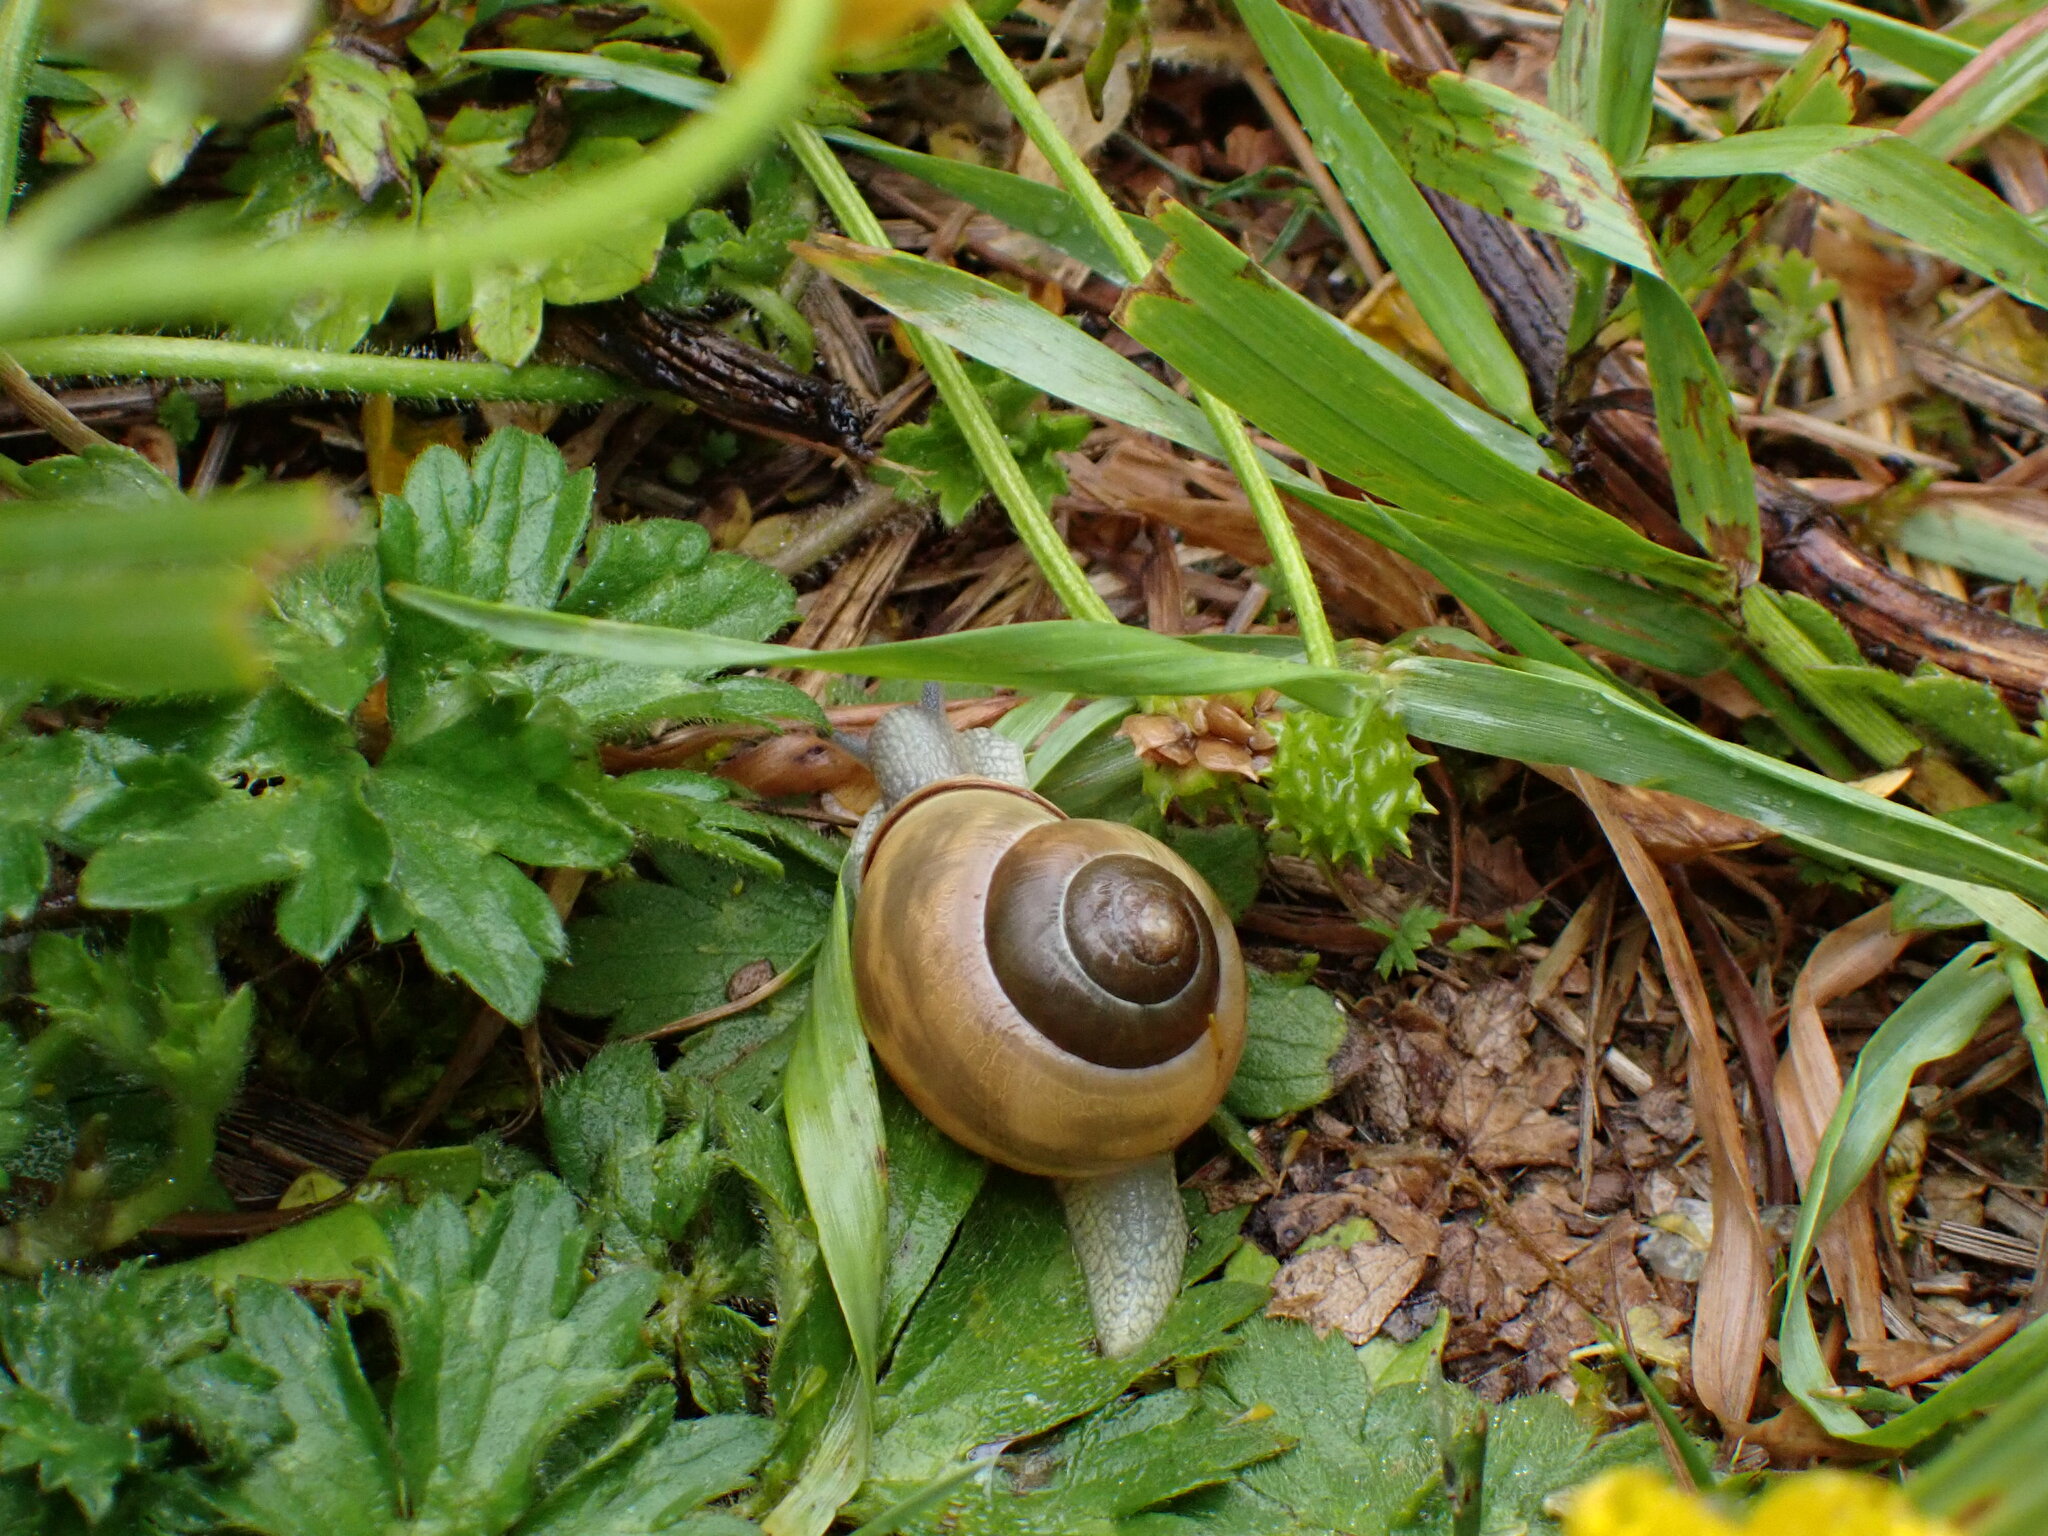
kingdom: Animalia
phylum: Mollusca
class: Gastropoda
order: Stylommatophora
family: Helicidae
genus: Cepaea
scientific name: Cepaea nemoralis
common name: Grovesnail
